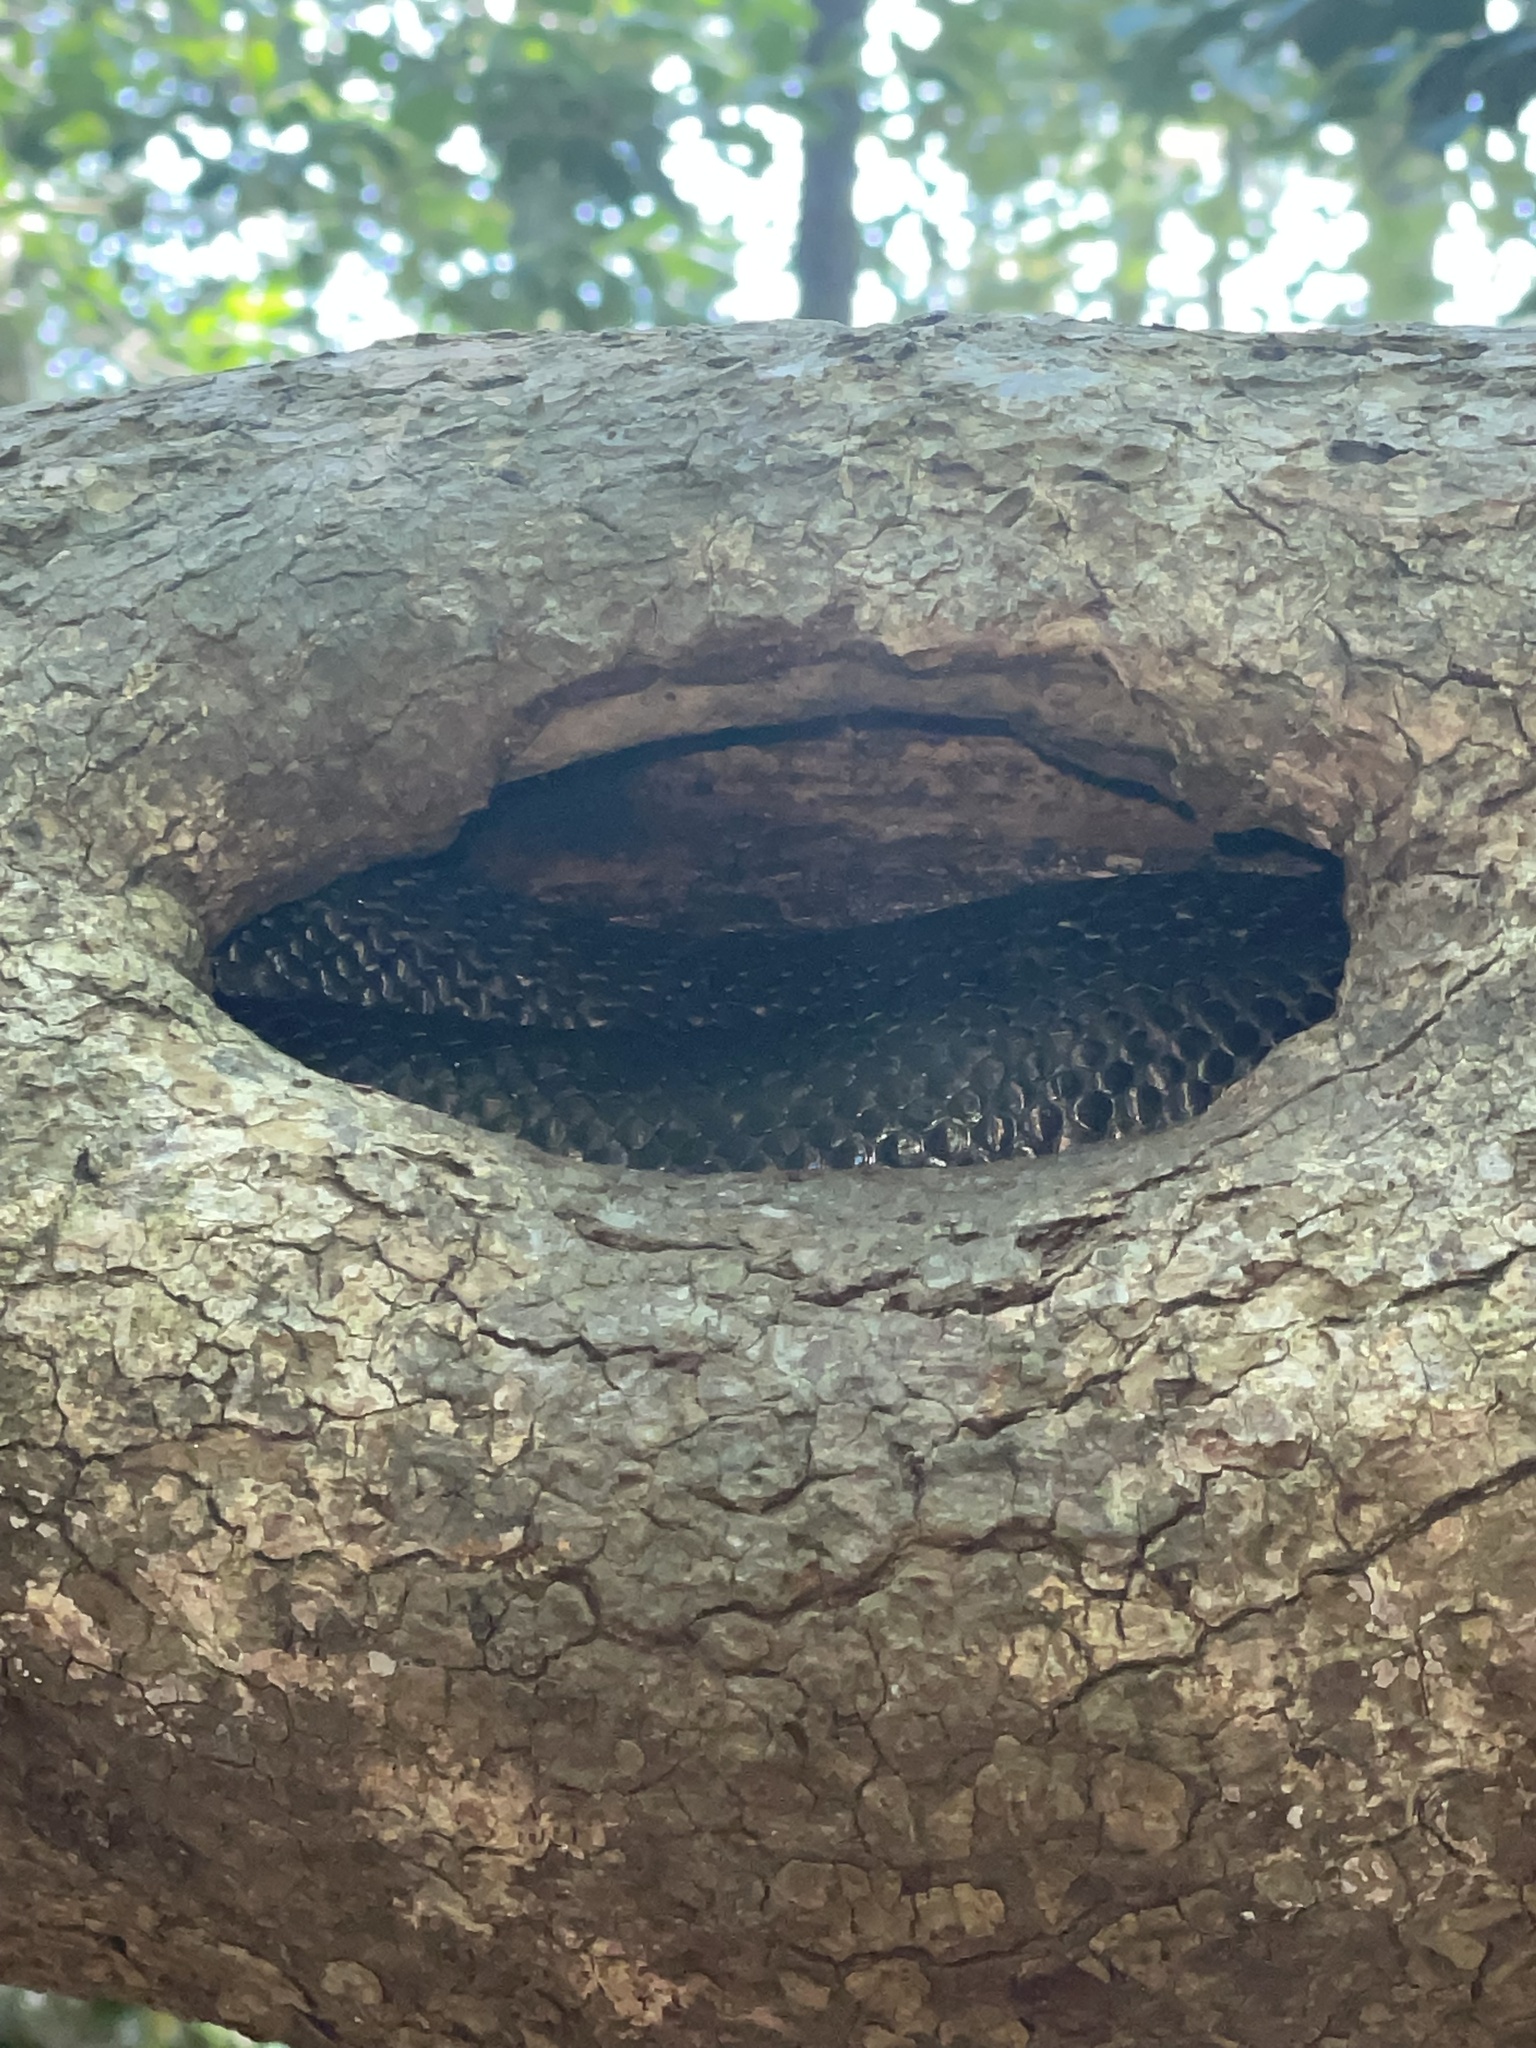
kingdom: Animalia
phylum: Chordata
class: Squamata
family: Colubridae
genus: Pantherophis
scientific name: Pantherophis alleghaniensis
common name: Eastern rat snake
